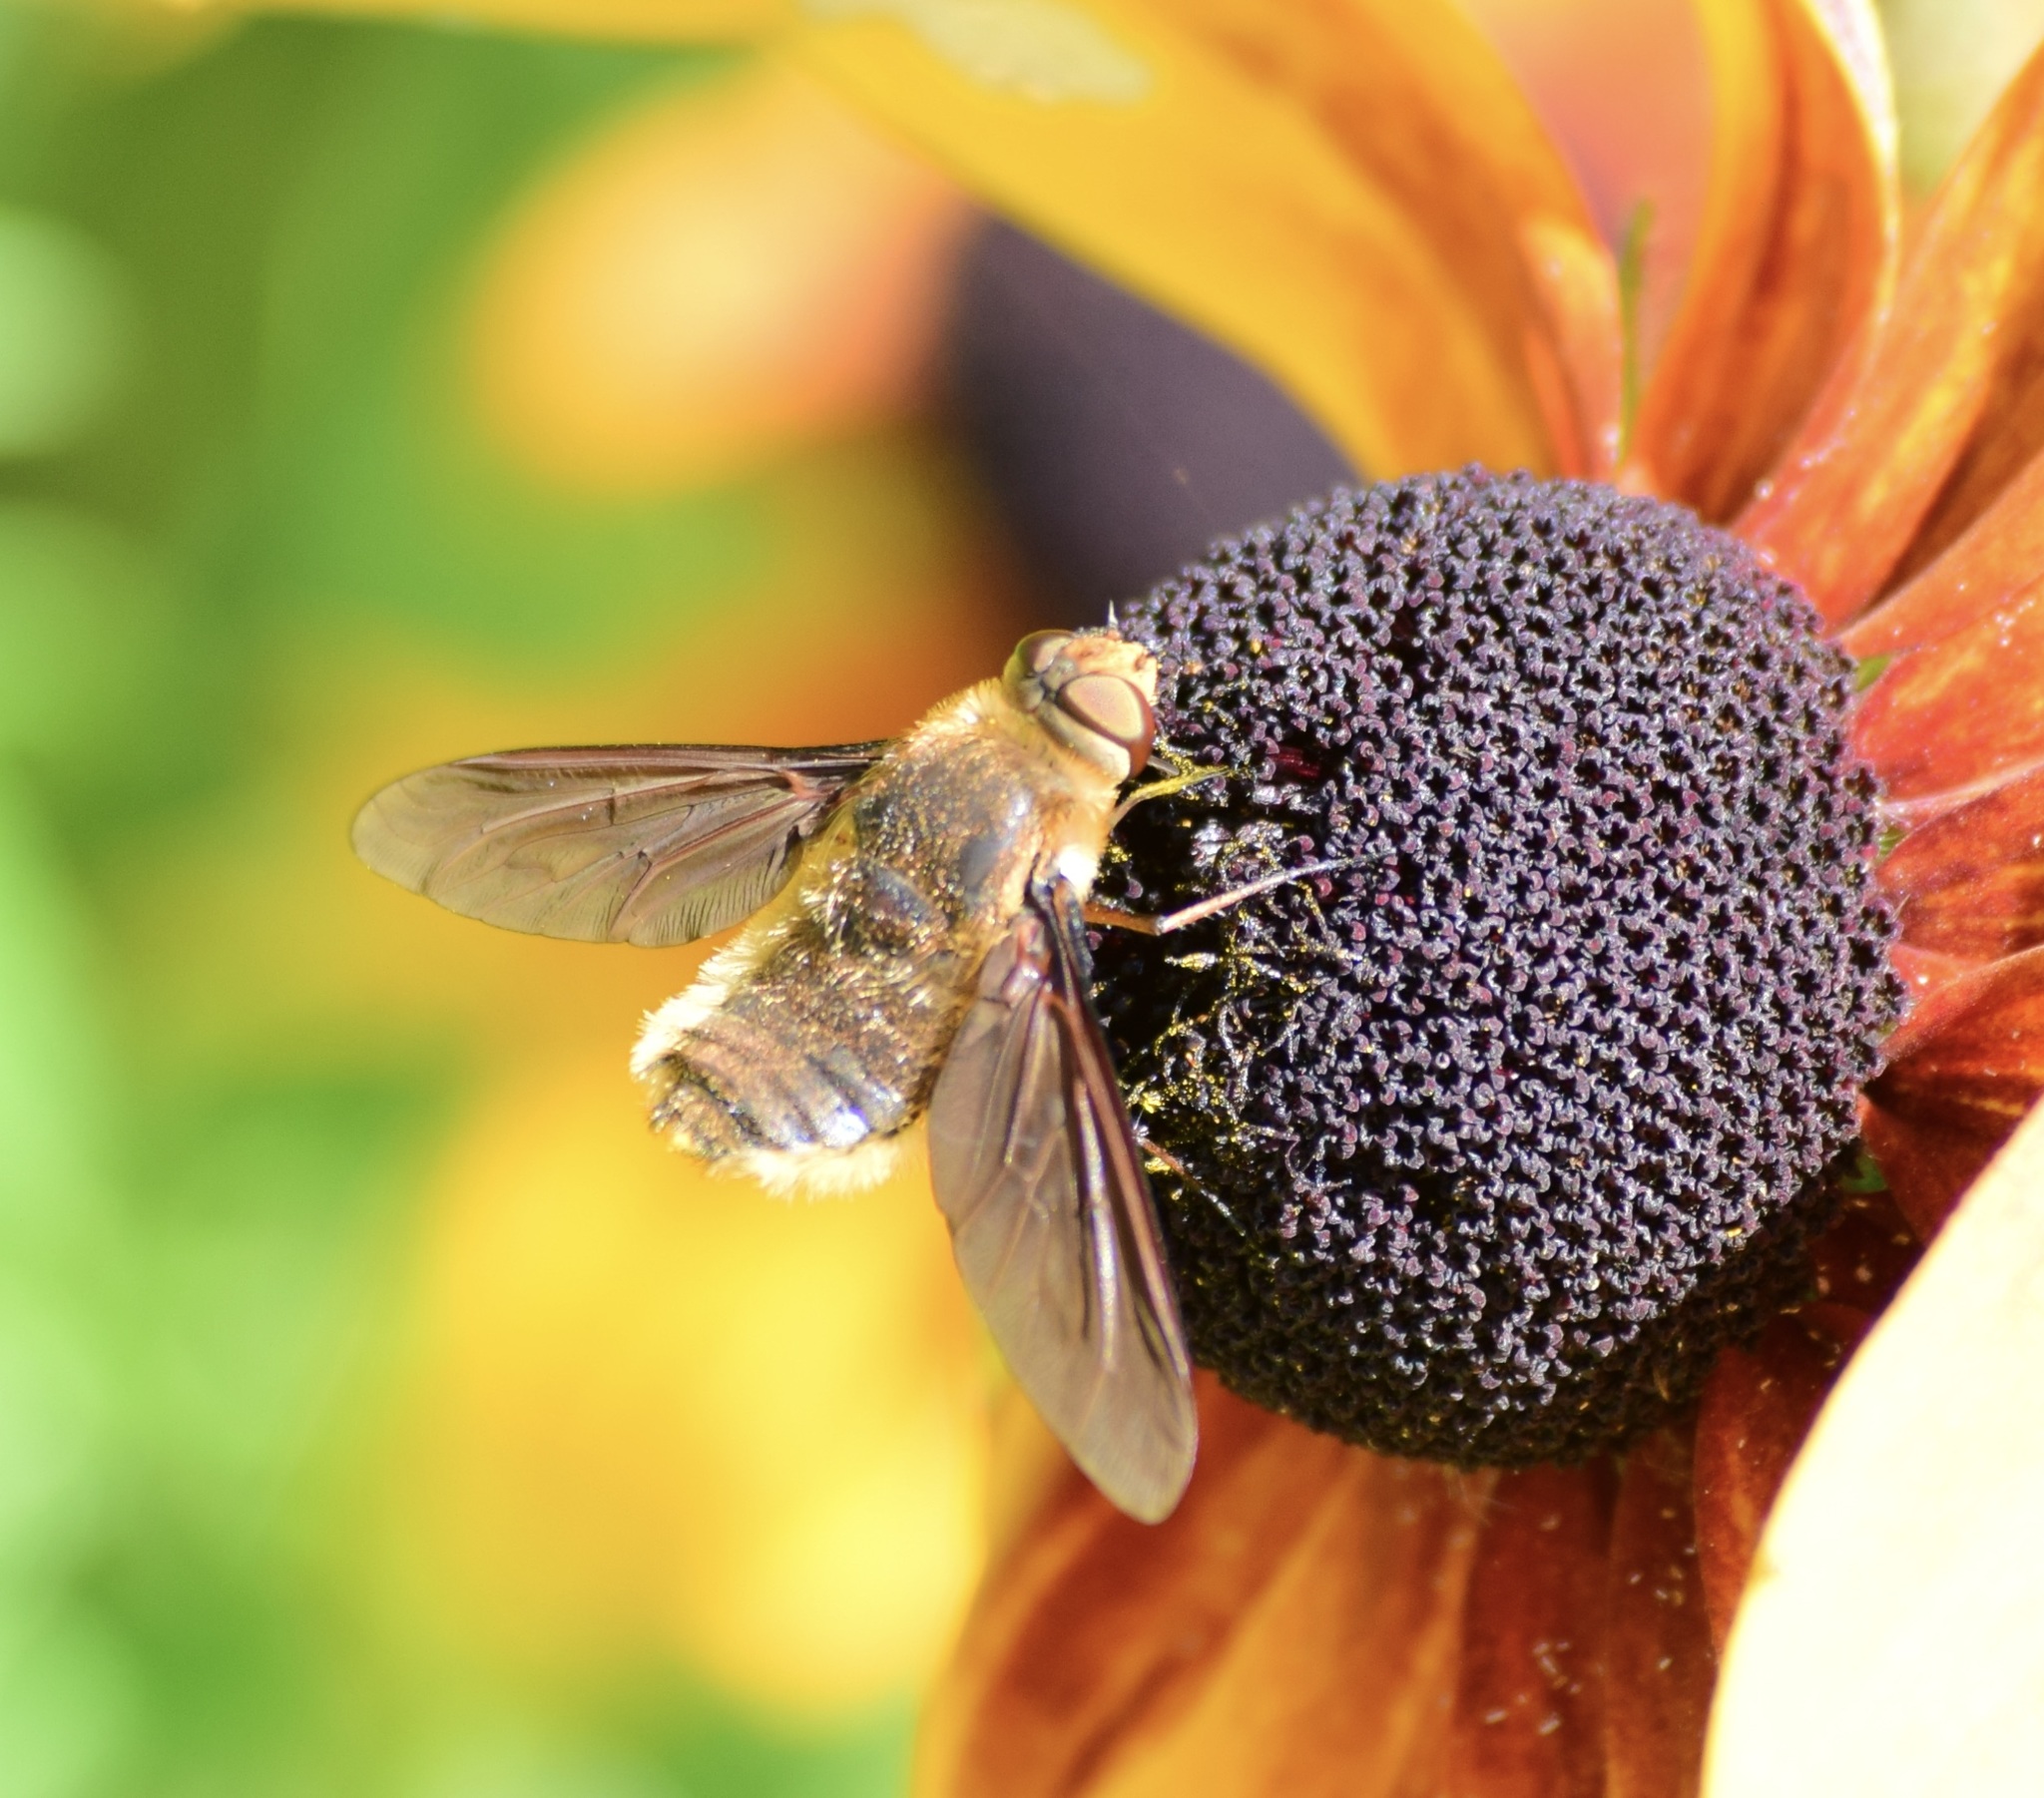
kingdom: Animalia
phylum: Arthropoda
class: Insecta
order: Diptera
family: Bombyliidae
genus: Poecilanthrax
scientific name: Poecilanthrax tegminipennis
